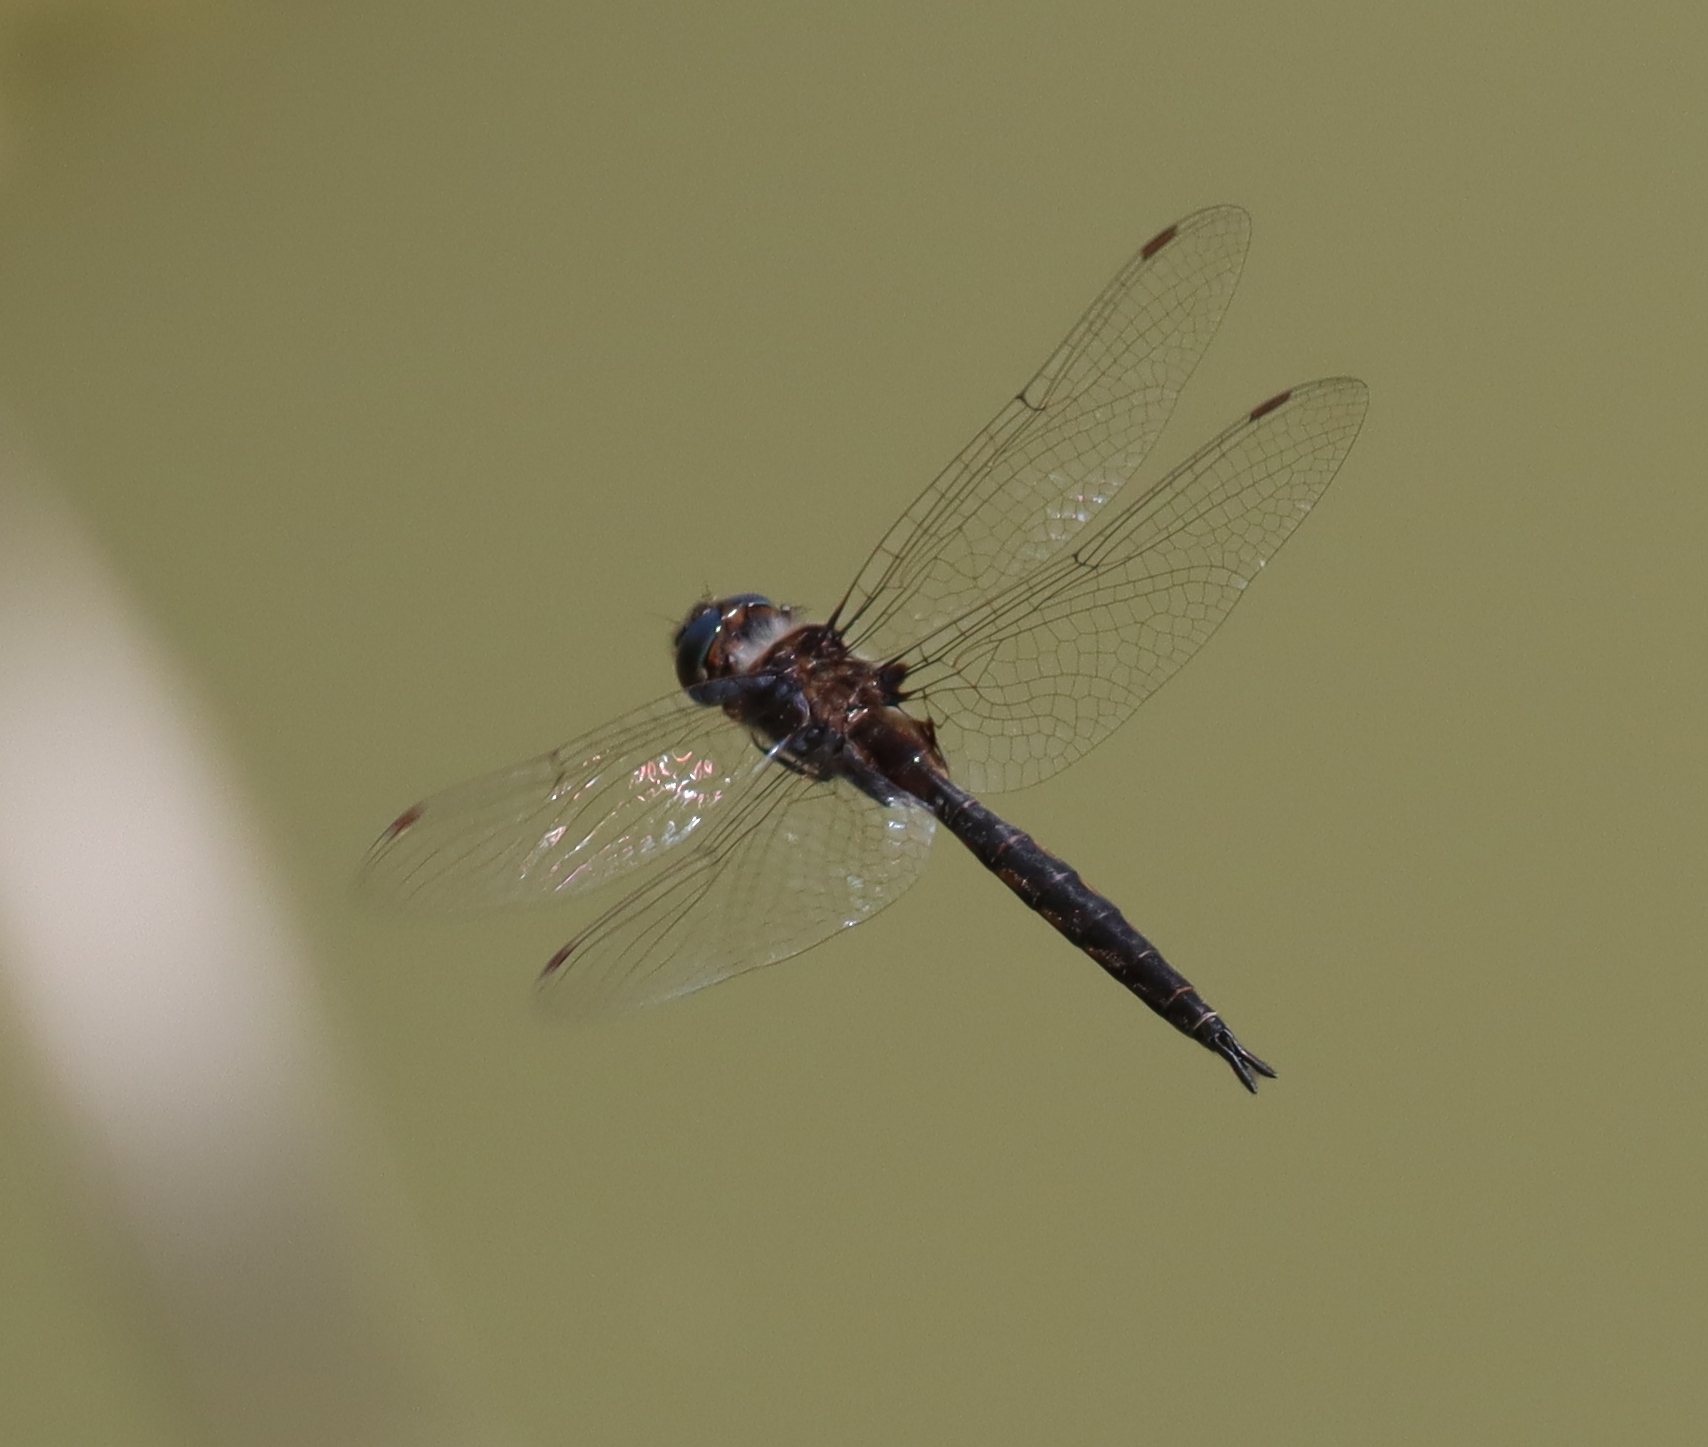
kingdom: Animalia
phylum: Arthropoda
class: Insecta
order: Odonata
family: Corduliidae
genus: Epitheca
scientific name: Epitheca
